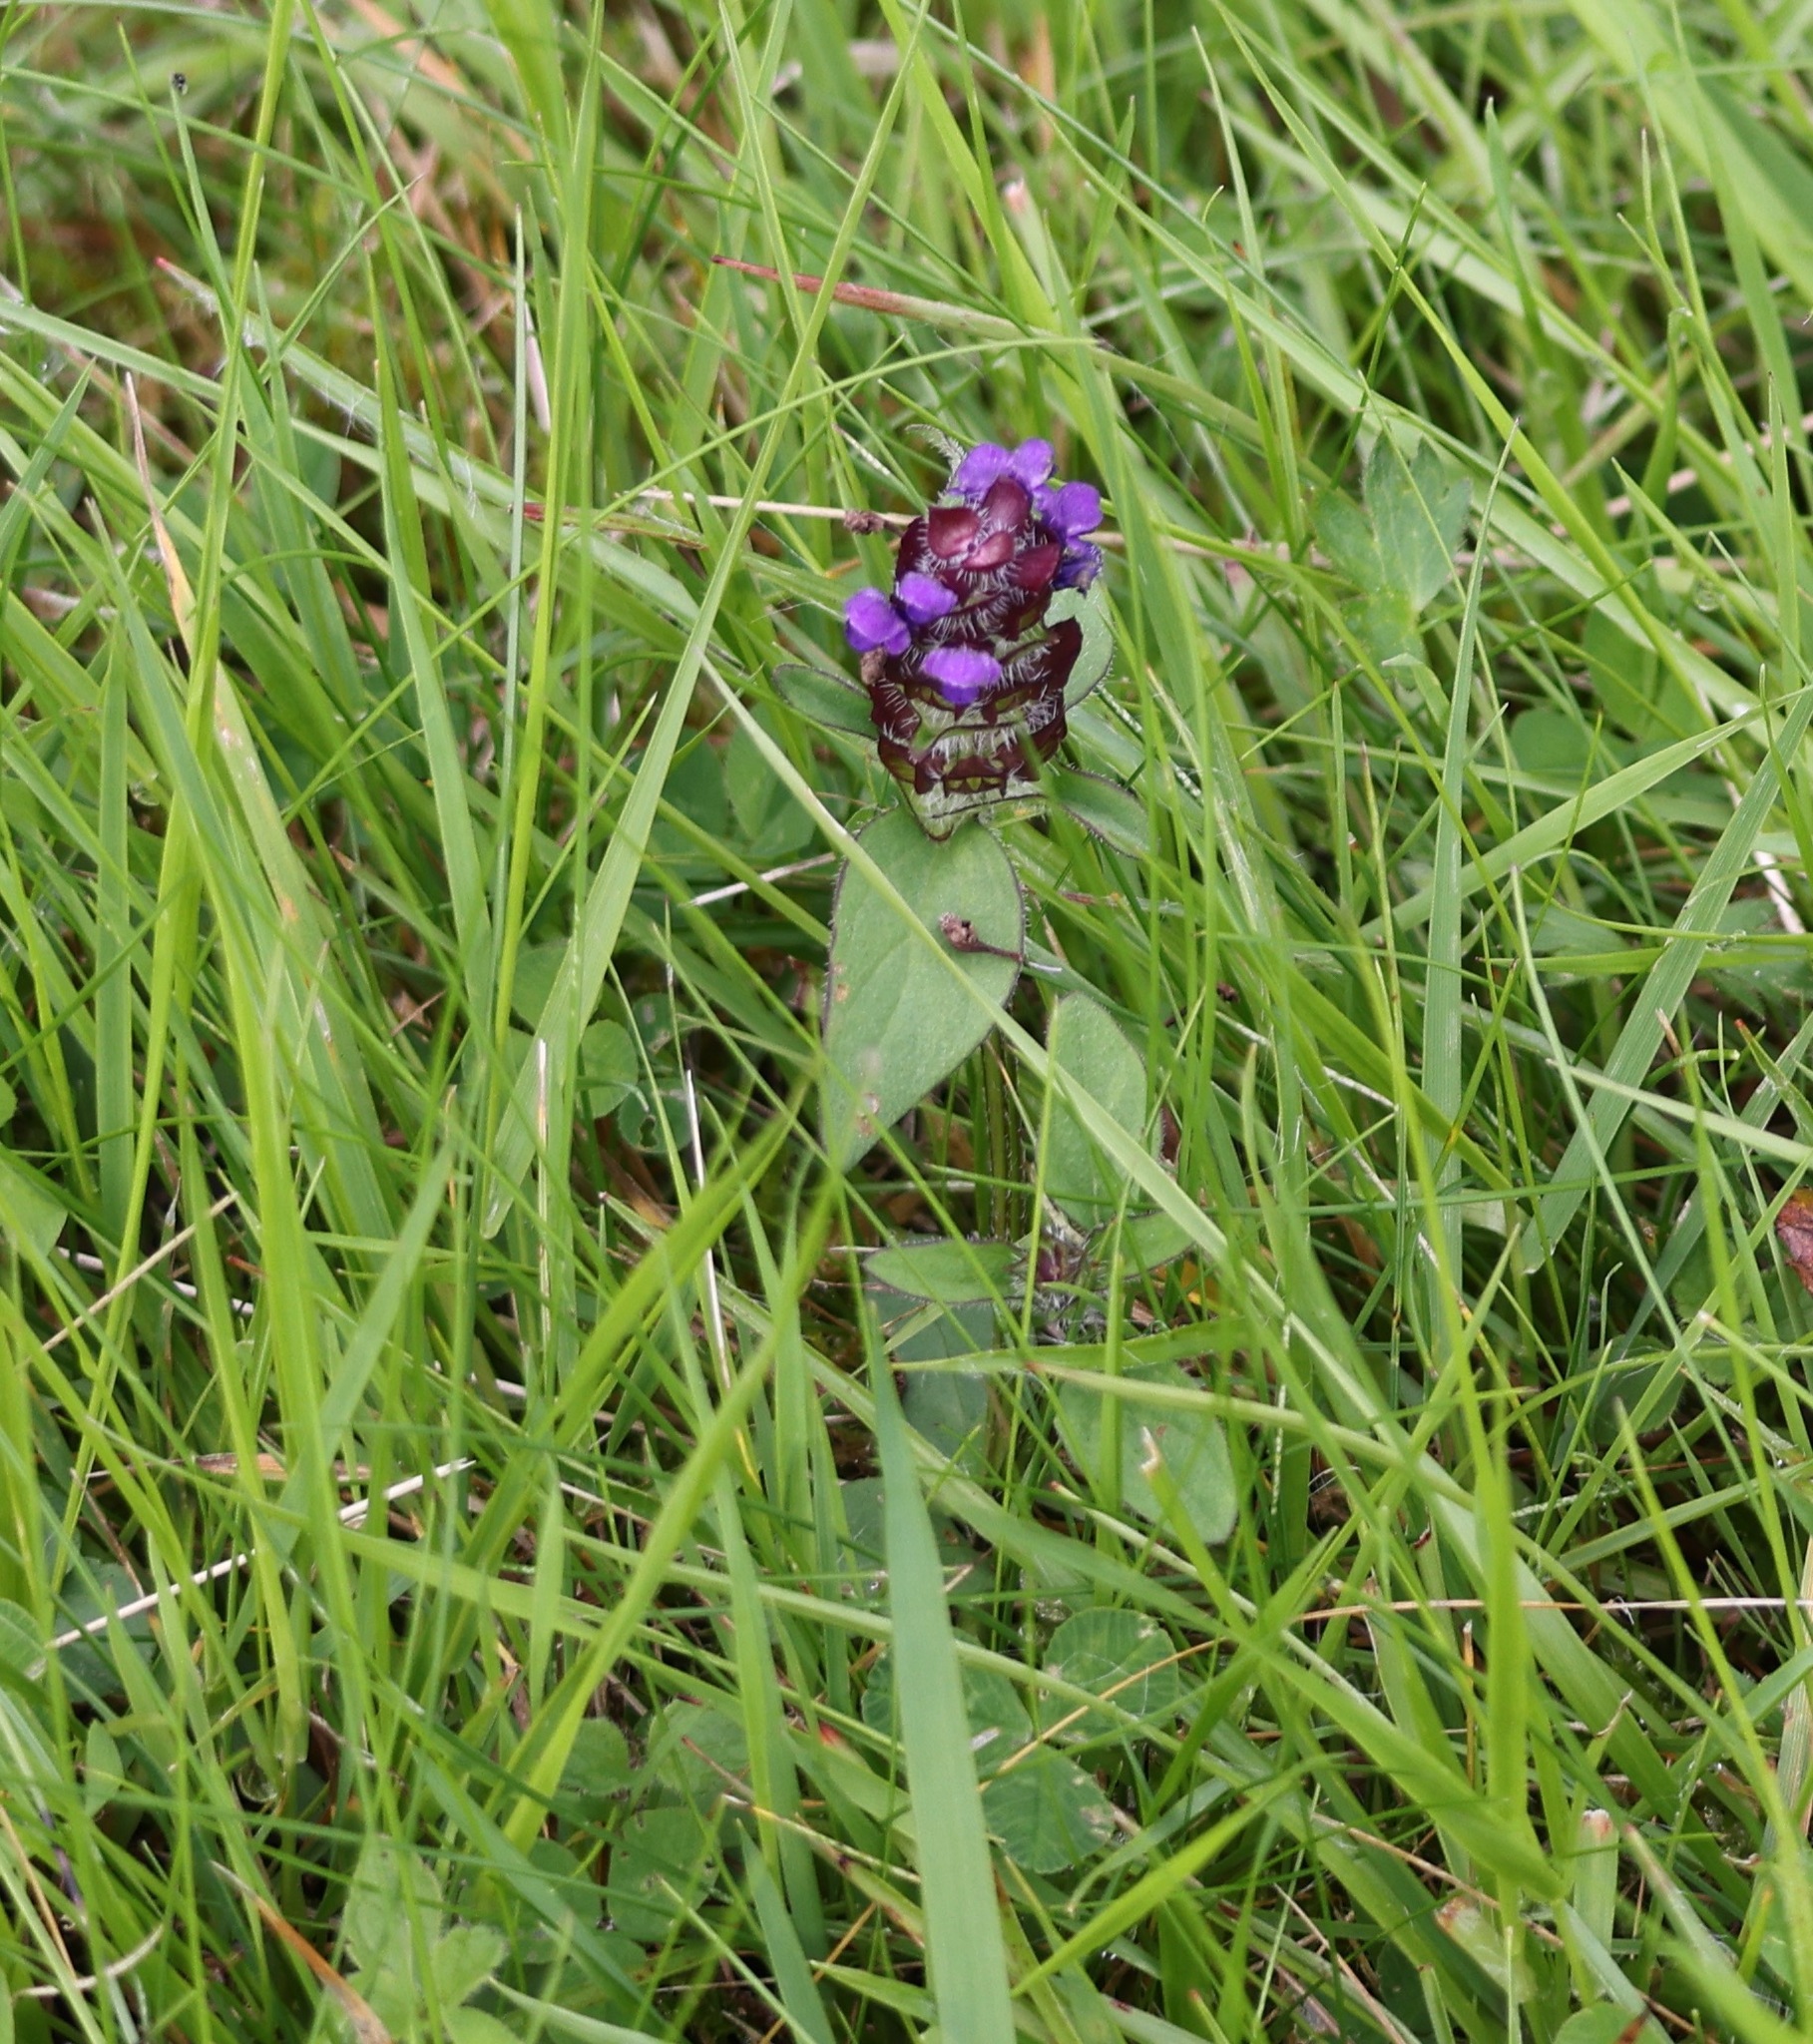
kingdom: Plantae
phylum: Tracheophyta
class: Magnoliopsida
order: Lamiales
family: Lamiaceae
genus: Prunella
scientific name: Prunella vulgaris
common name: Heal-all
